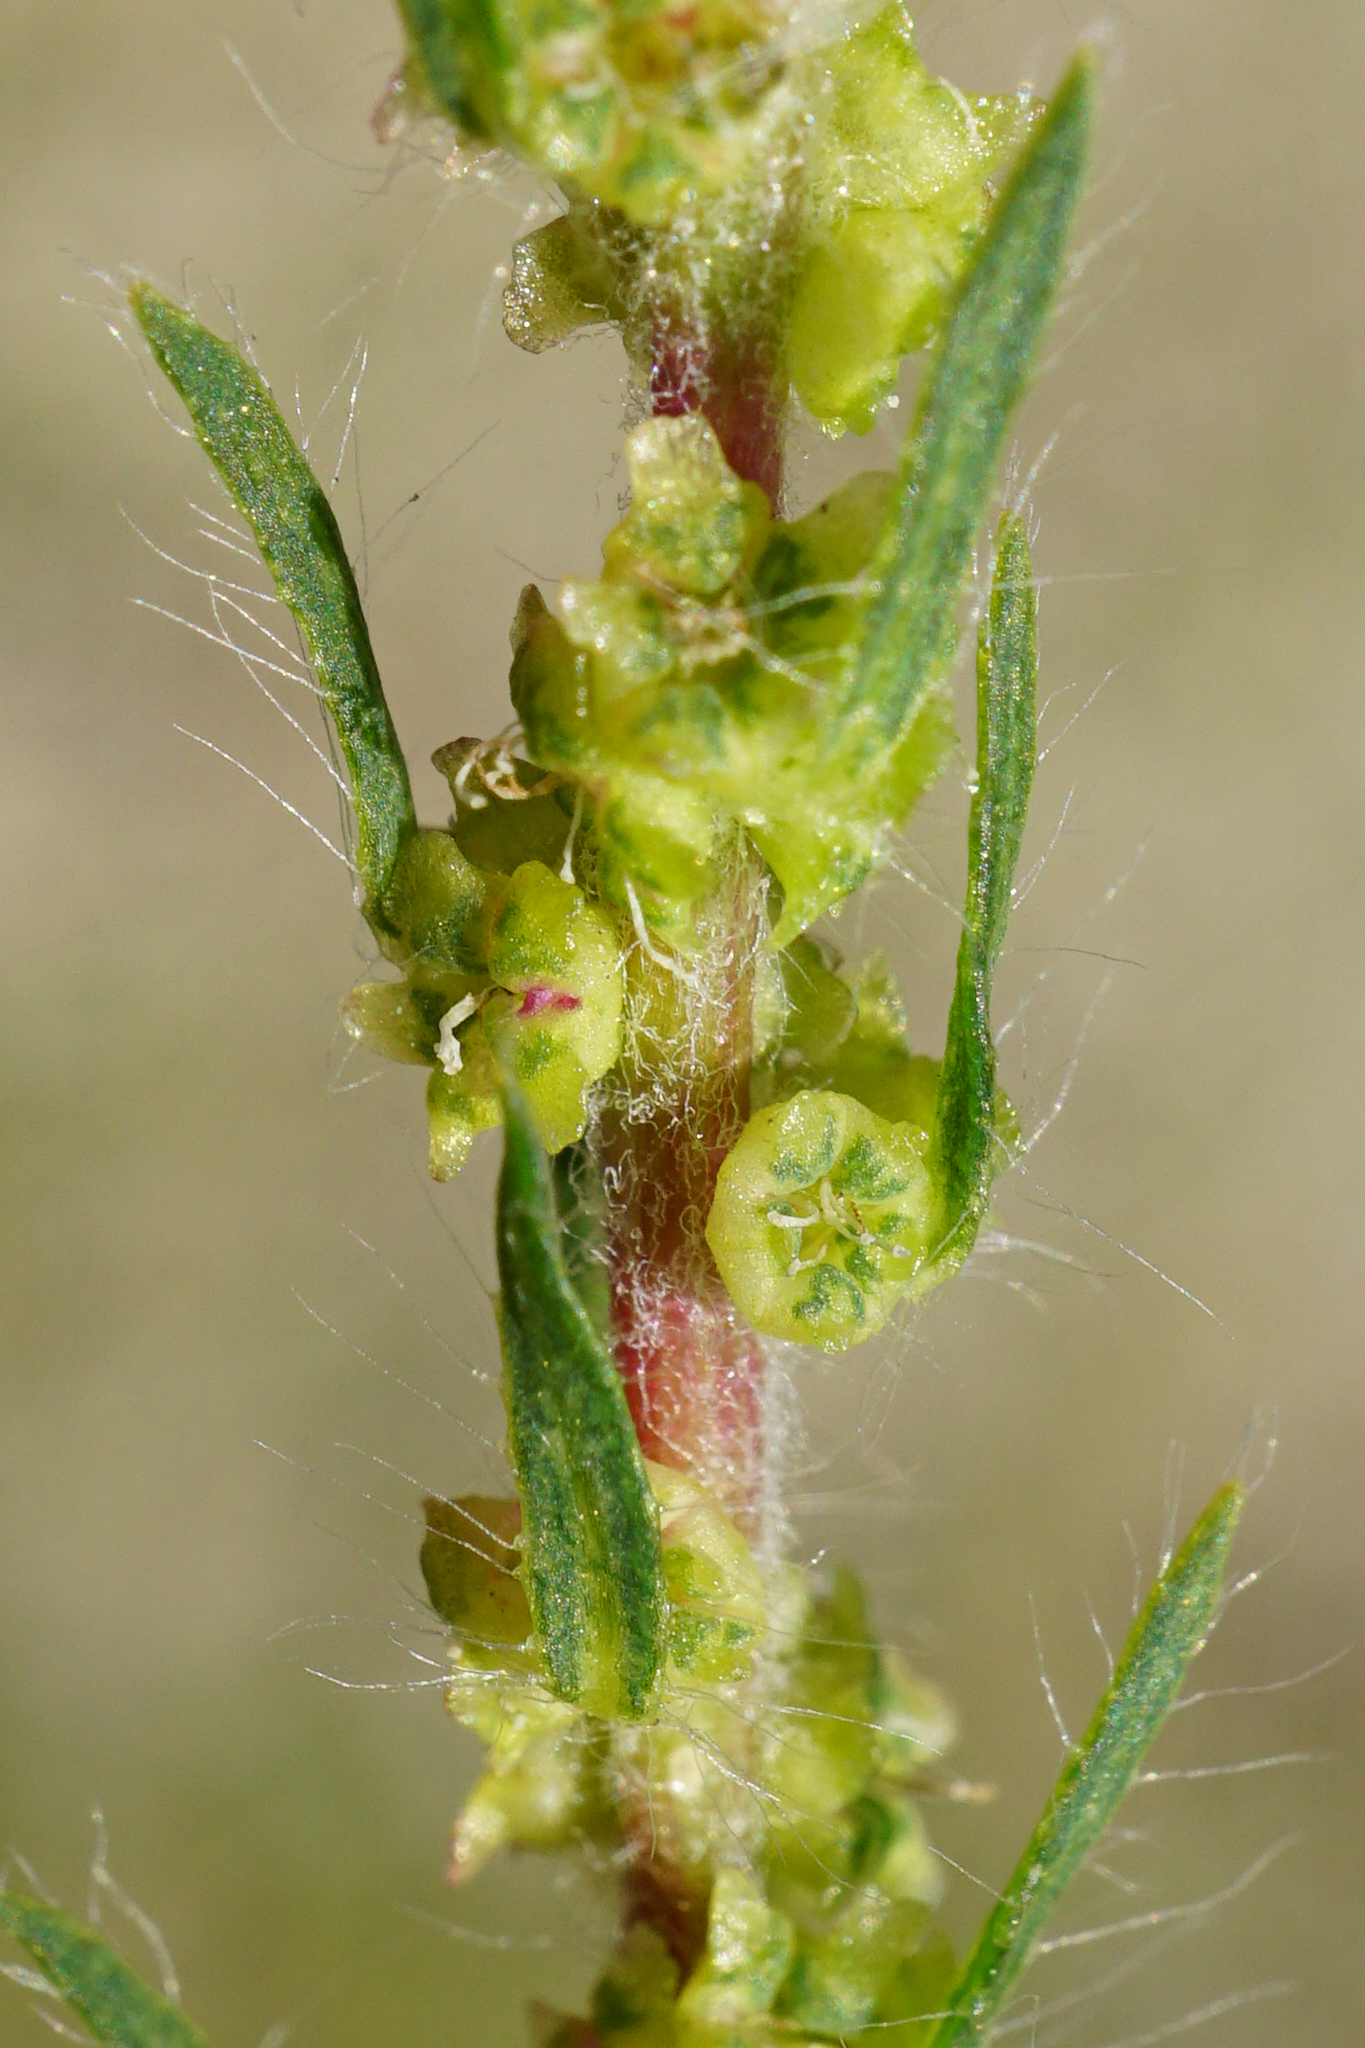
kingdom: Plantae
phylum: Tracheophyta
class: Magnoliopsida
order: Caryophyllales
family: Amaranthaceae
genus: Bassia
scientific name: Bassia scoparia
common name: Belvedere
